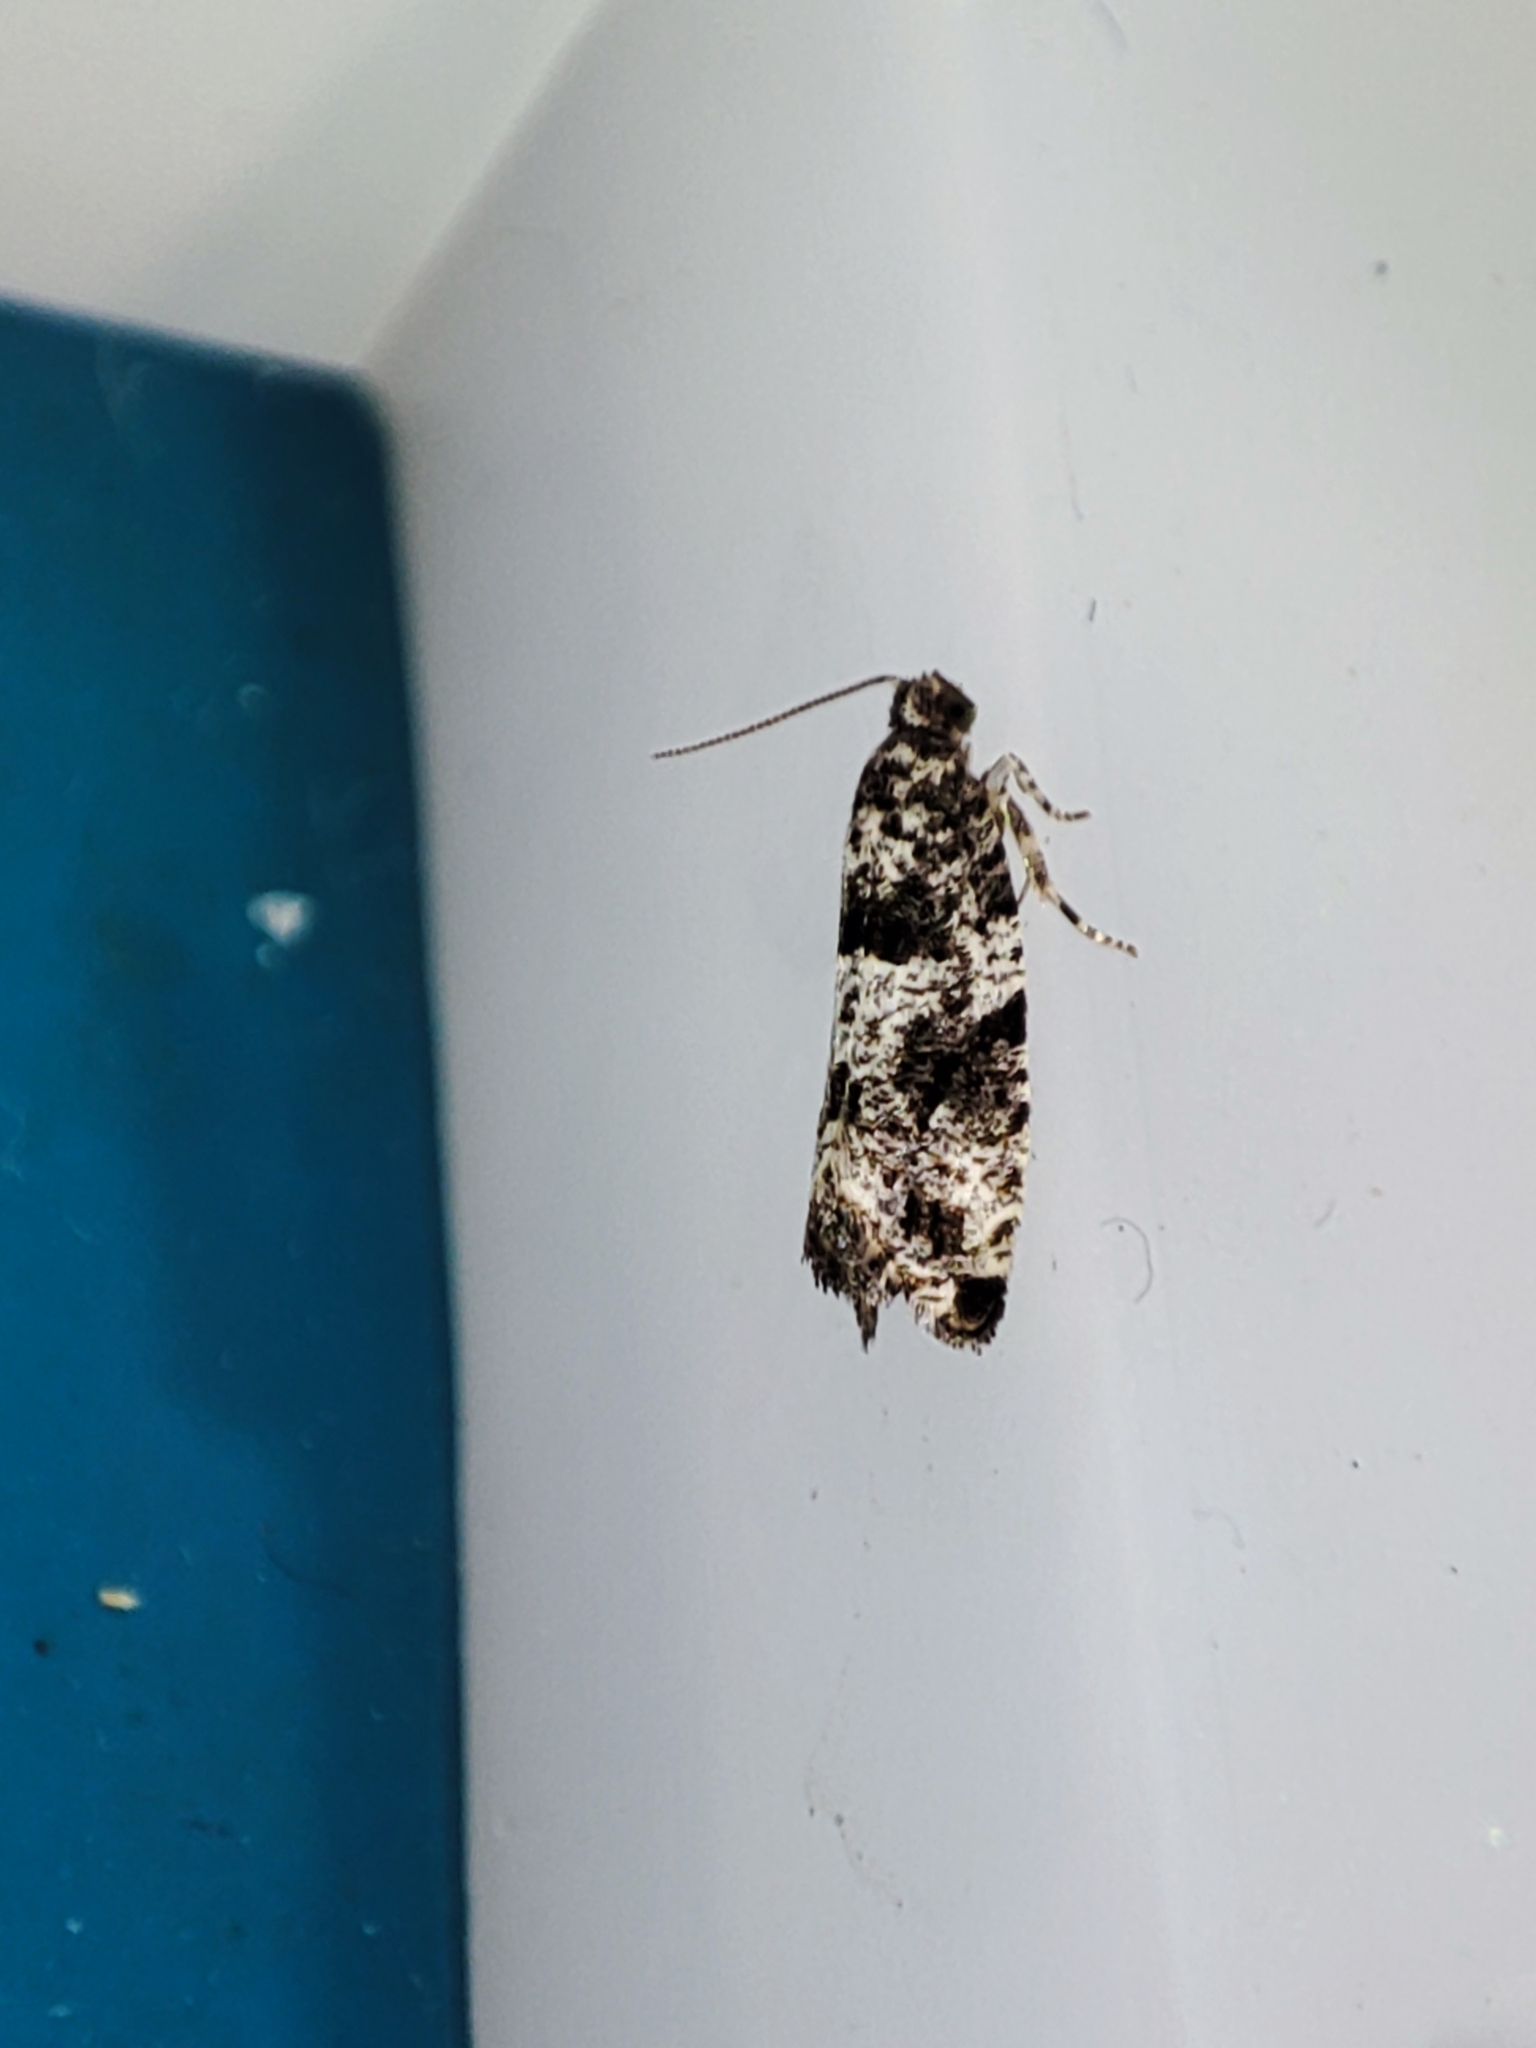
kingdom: Animalia
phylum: Arthropoda
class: Insecta
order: Lepidoptera
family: Tortricidae
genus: Gypsonoma
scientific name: Gypsonoma oppressana
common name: Poplar shoot
